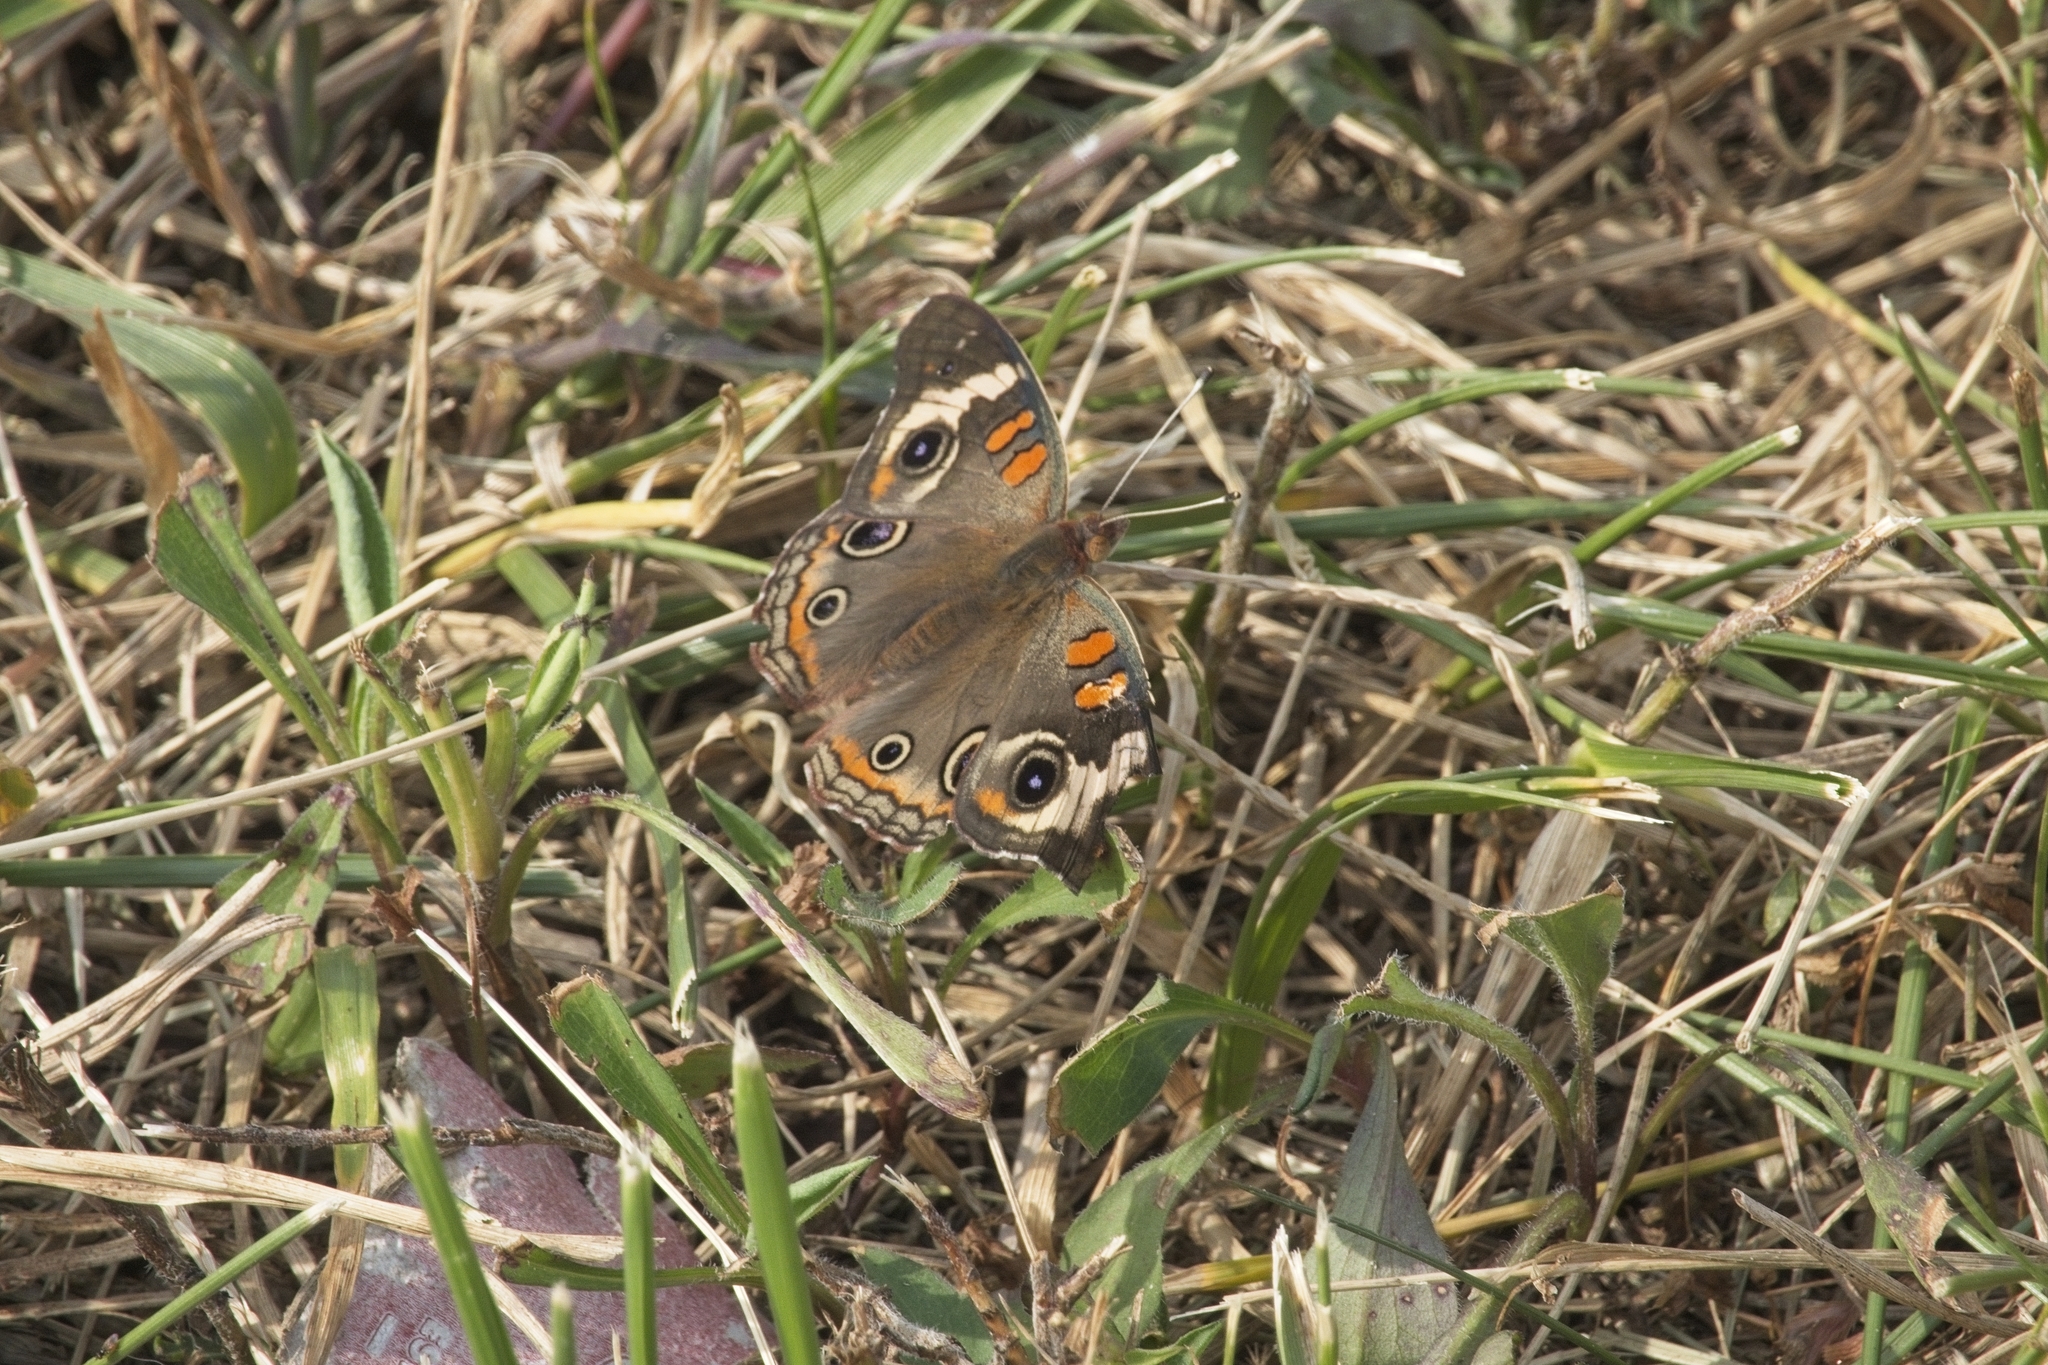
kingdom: Animalia
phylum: Arthropoda
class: Insecta
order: Lepidoptera
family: Nymphalidae
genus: Junonia
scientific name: Junonia coenia
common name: Common buckeye
